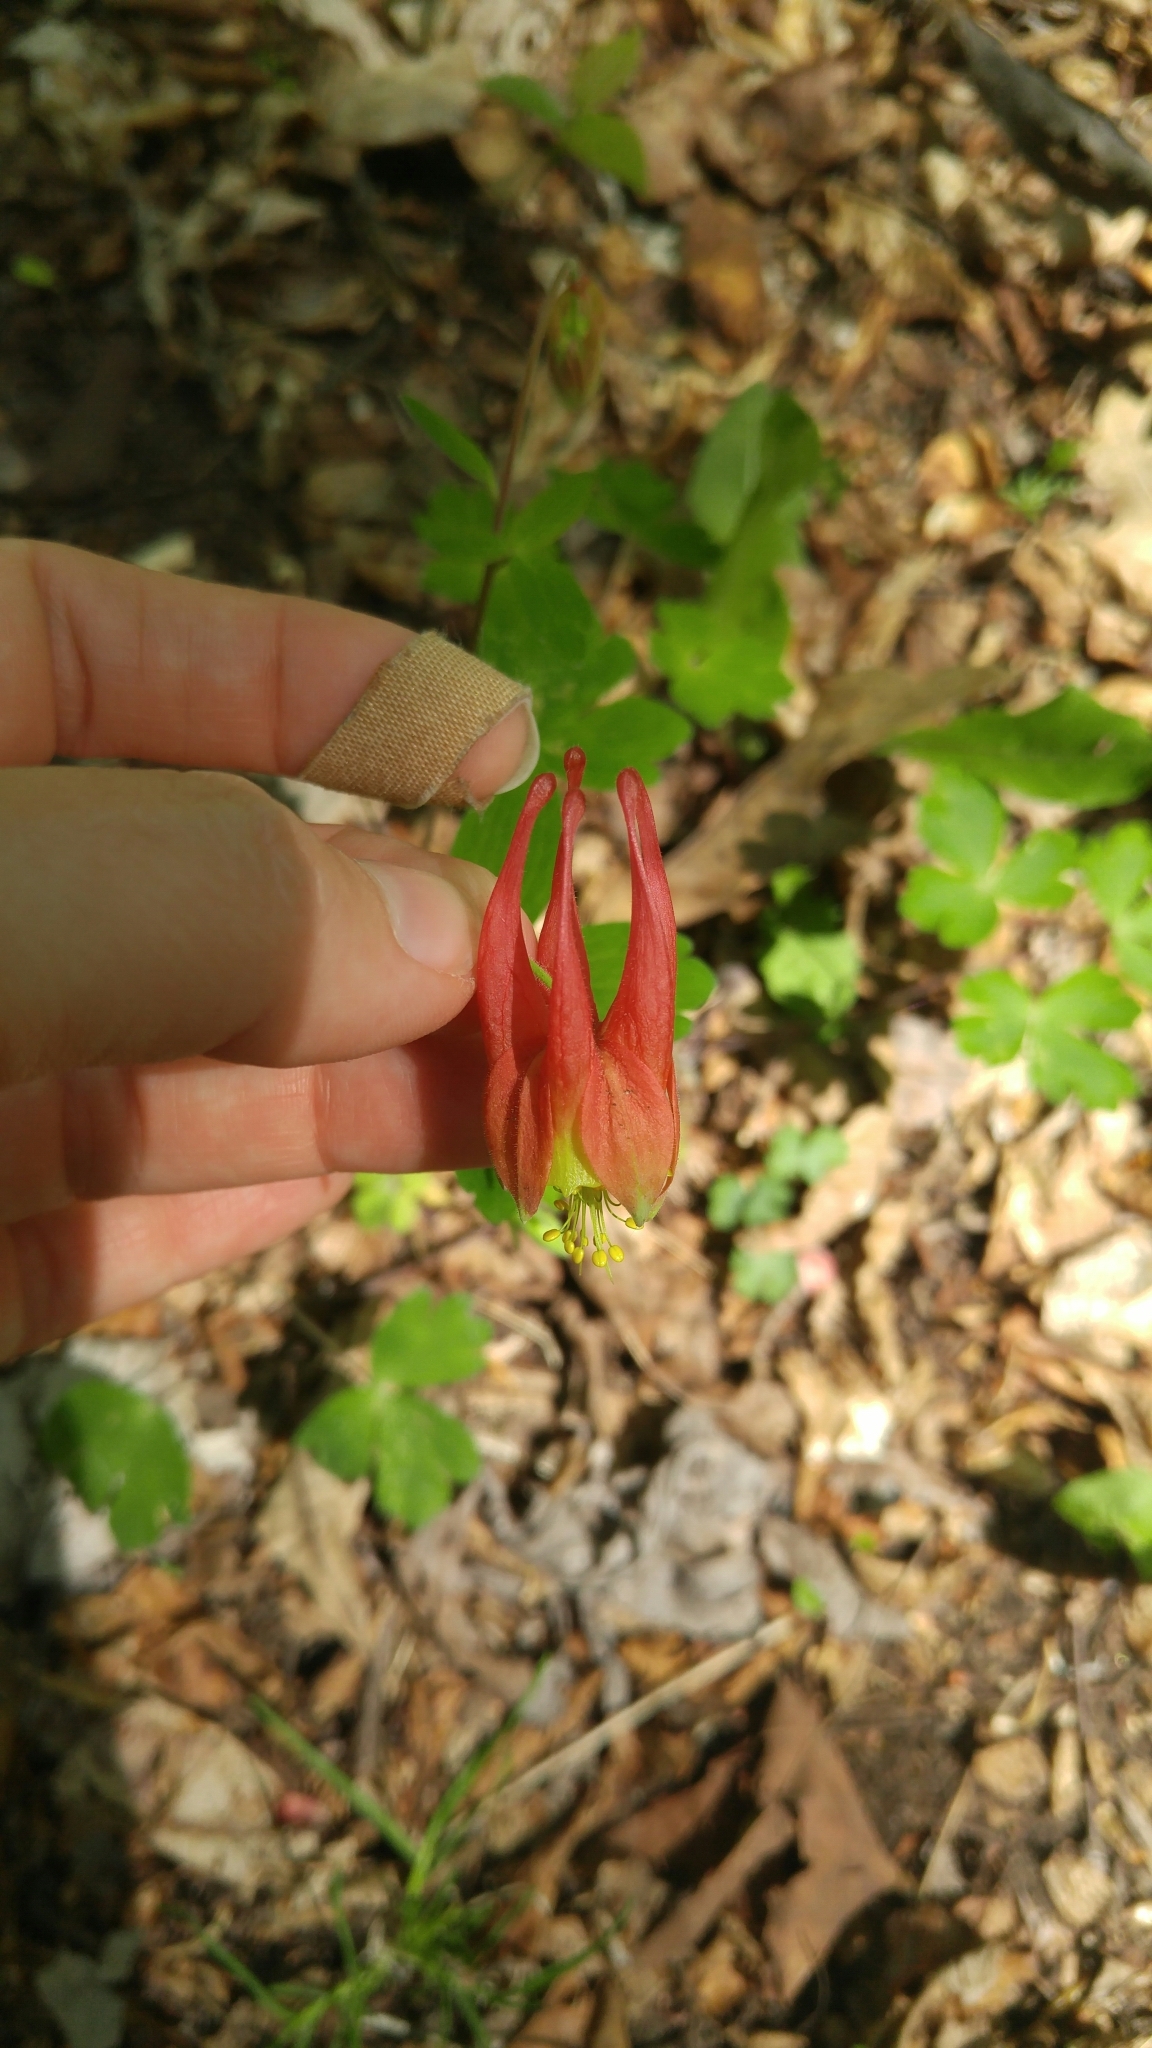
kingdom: Plantae
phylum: Tracheophyta
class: Magnoliopsida
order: Ranunculales
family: Ranunculaceae
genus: Aquilegia
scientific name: Aquilegia canadensis
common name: American columbine
